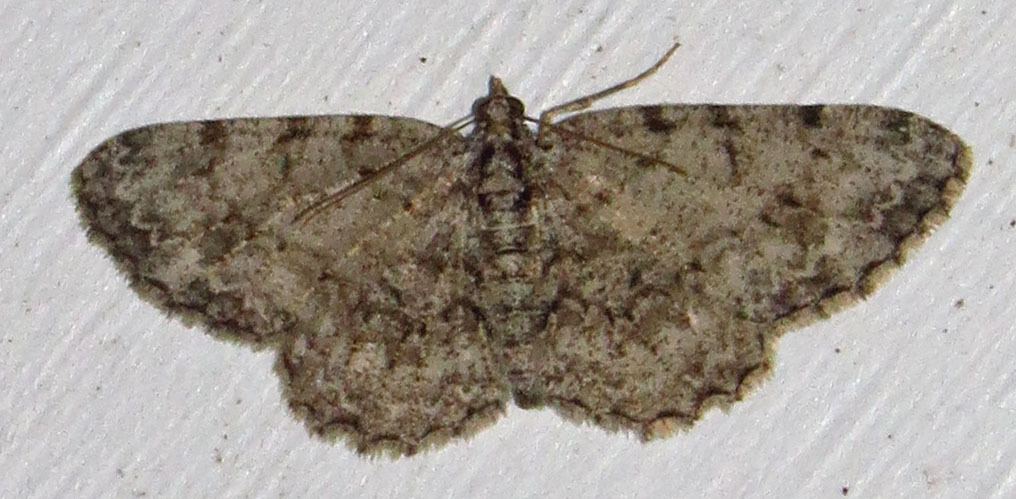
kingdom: Animalia
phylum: Arthropoda
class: Insecta
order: Lepidoptera
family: Geometridae
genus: Protoboarmia
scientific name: Protoboarmia porcelaria
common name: Porcelain gray
